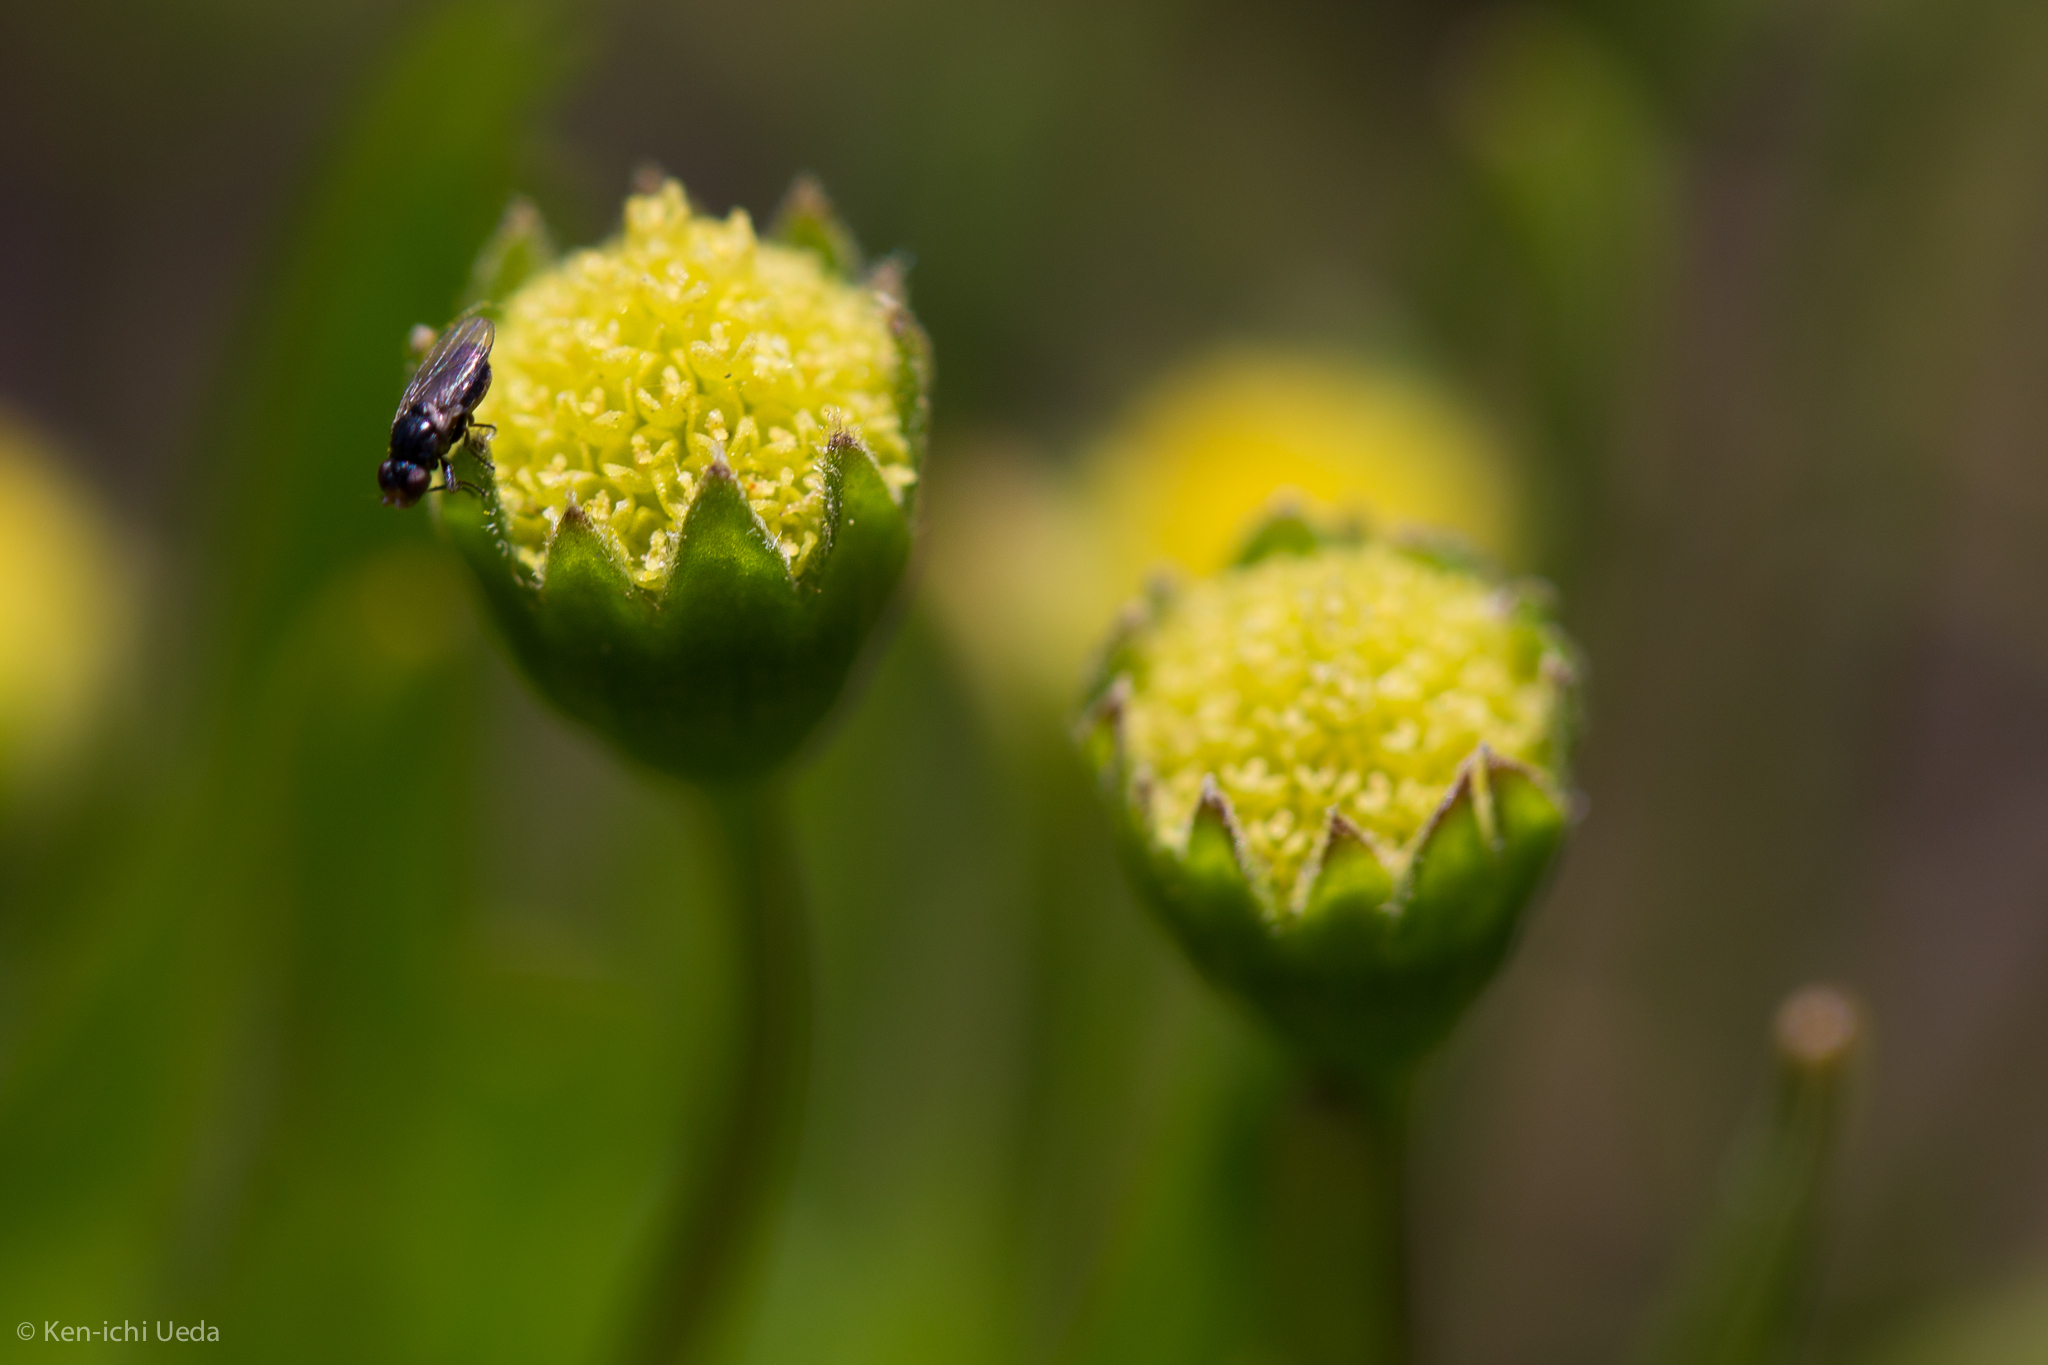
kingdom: Plantae
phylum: Tracheophyta
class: Magnoliopsida
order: Asterales
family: Asteraceae
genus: Lasthenia
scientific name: Lasthenia glaberrima
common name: Smooth goldfields
